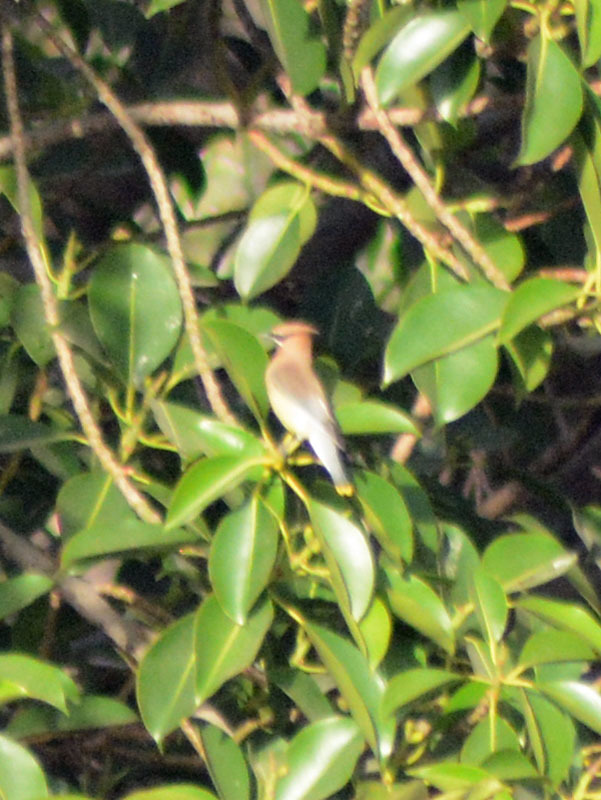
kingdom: Animalia
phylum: Chordata
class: Aves
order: Passeriformes
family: Bombycillidae
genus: Bombycilla
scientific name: Bombycilla cedrorum
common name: Cedar waxwing
